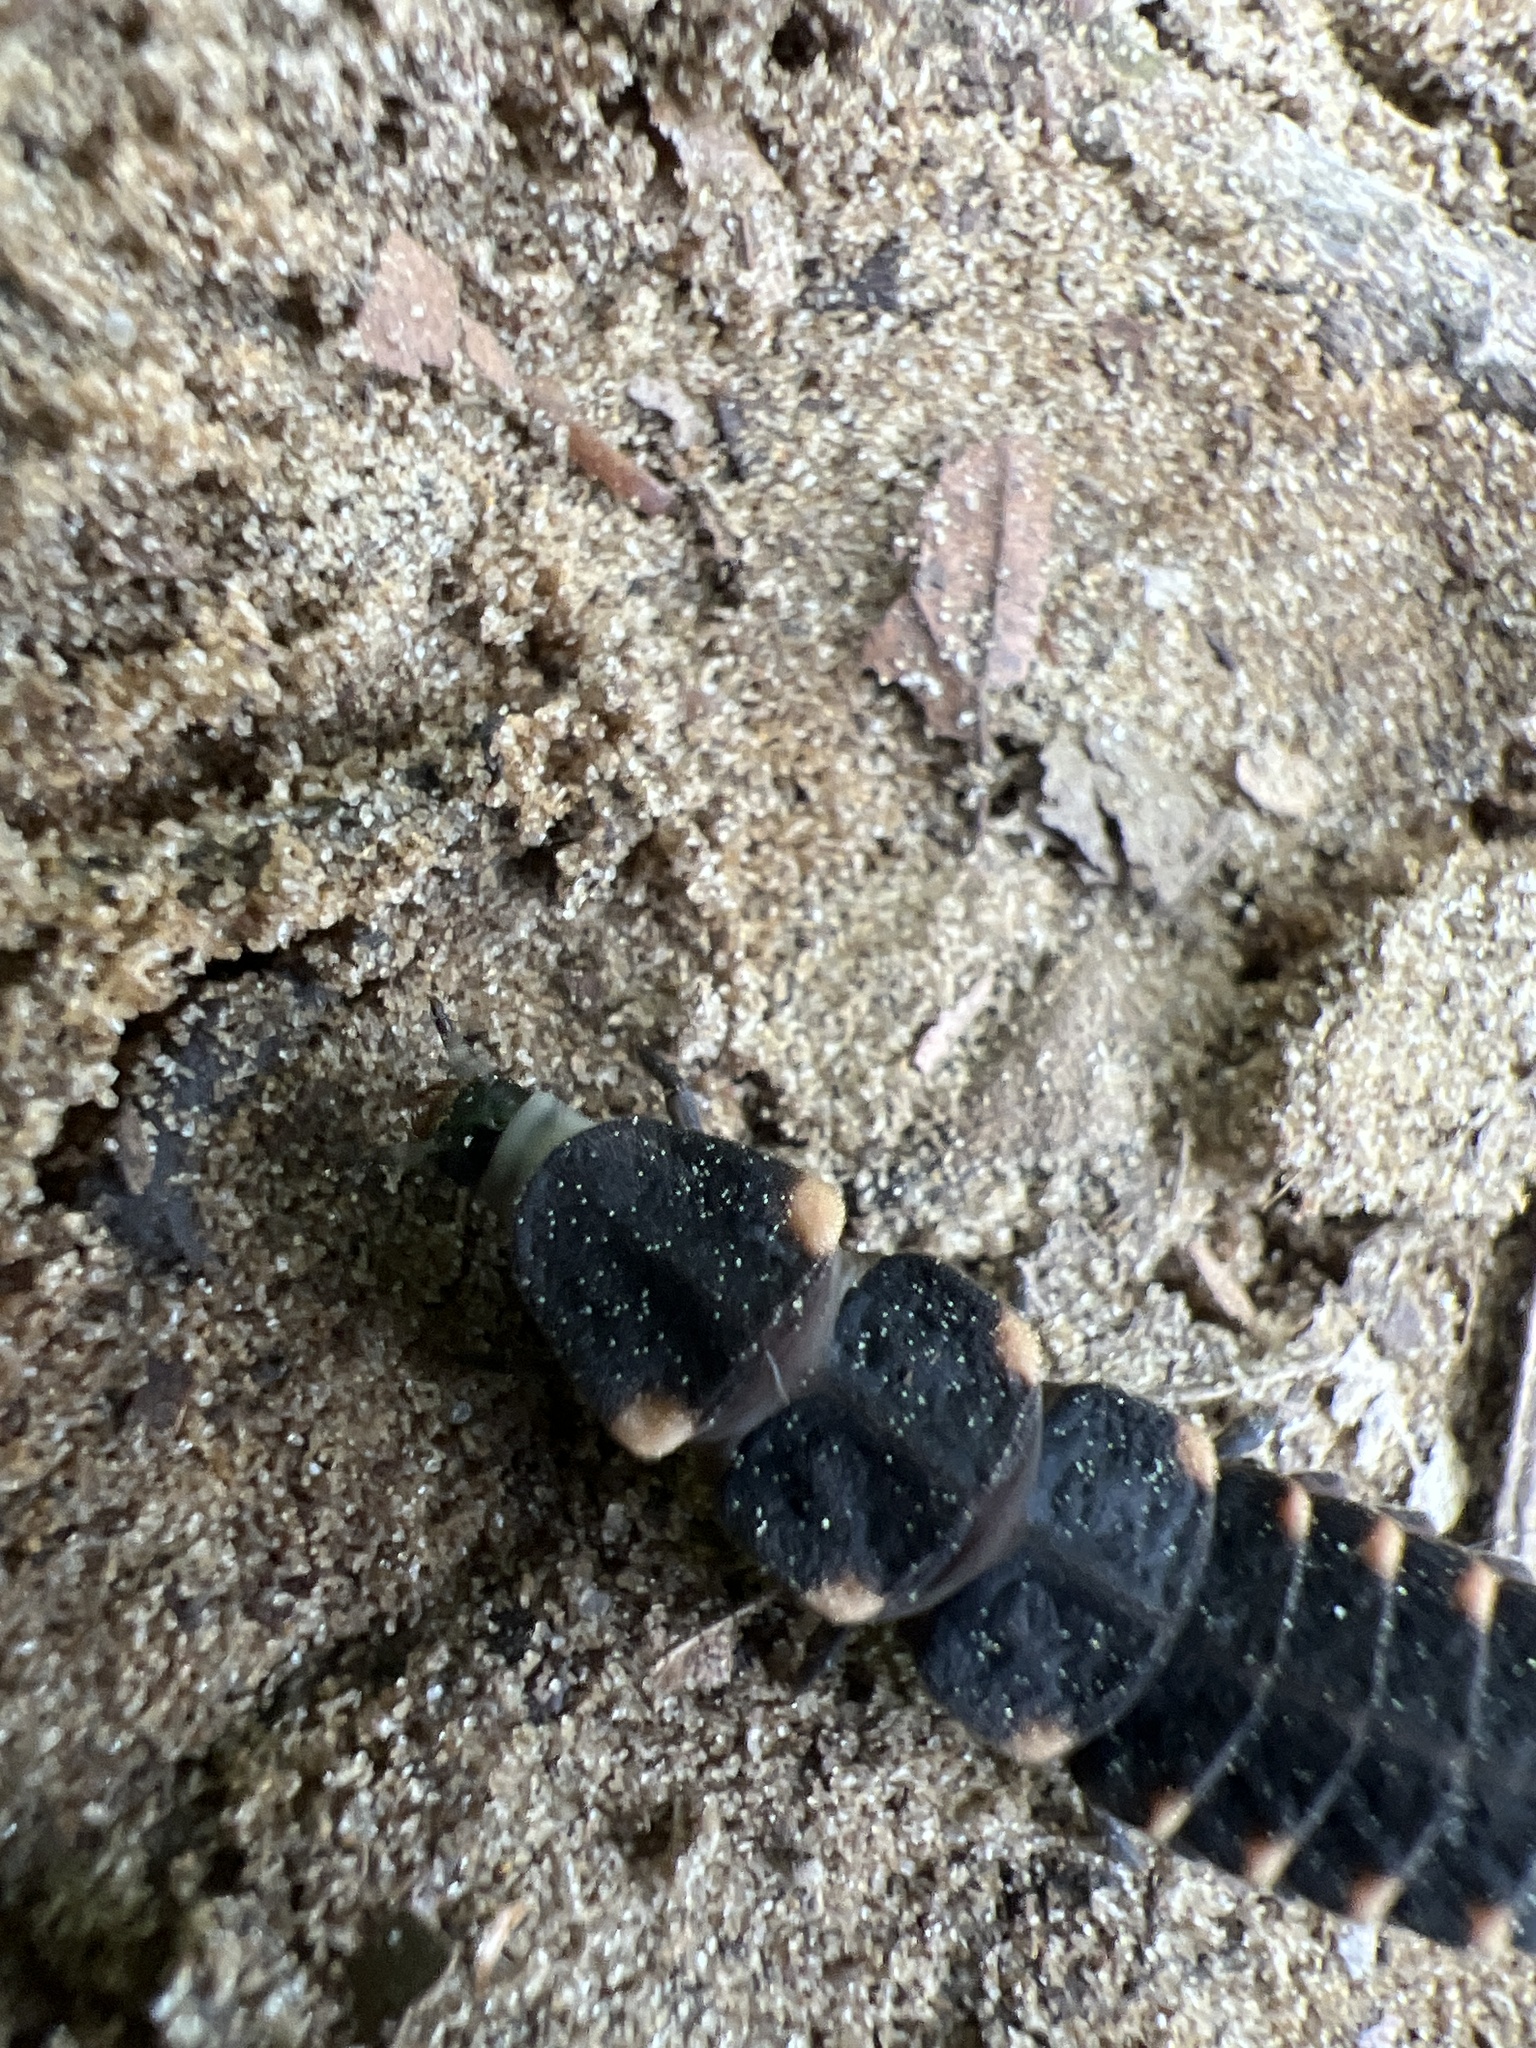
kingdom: Animalia
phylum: Arthropoda
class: Insecta
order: Coleoptera
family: Lampyridae
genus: Lampyris
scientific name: Lampyris noctiluca
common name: Glow-worm
